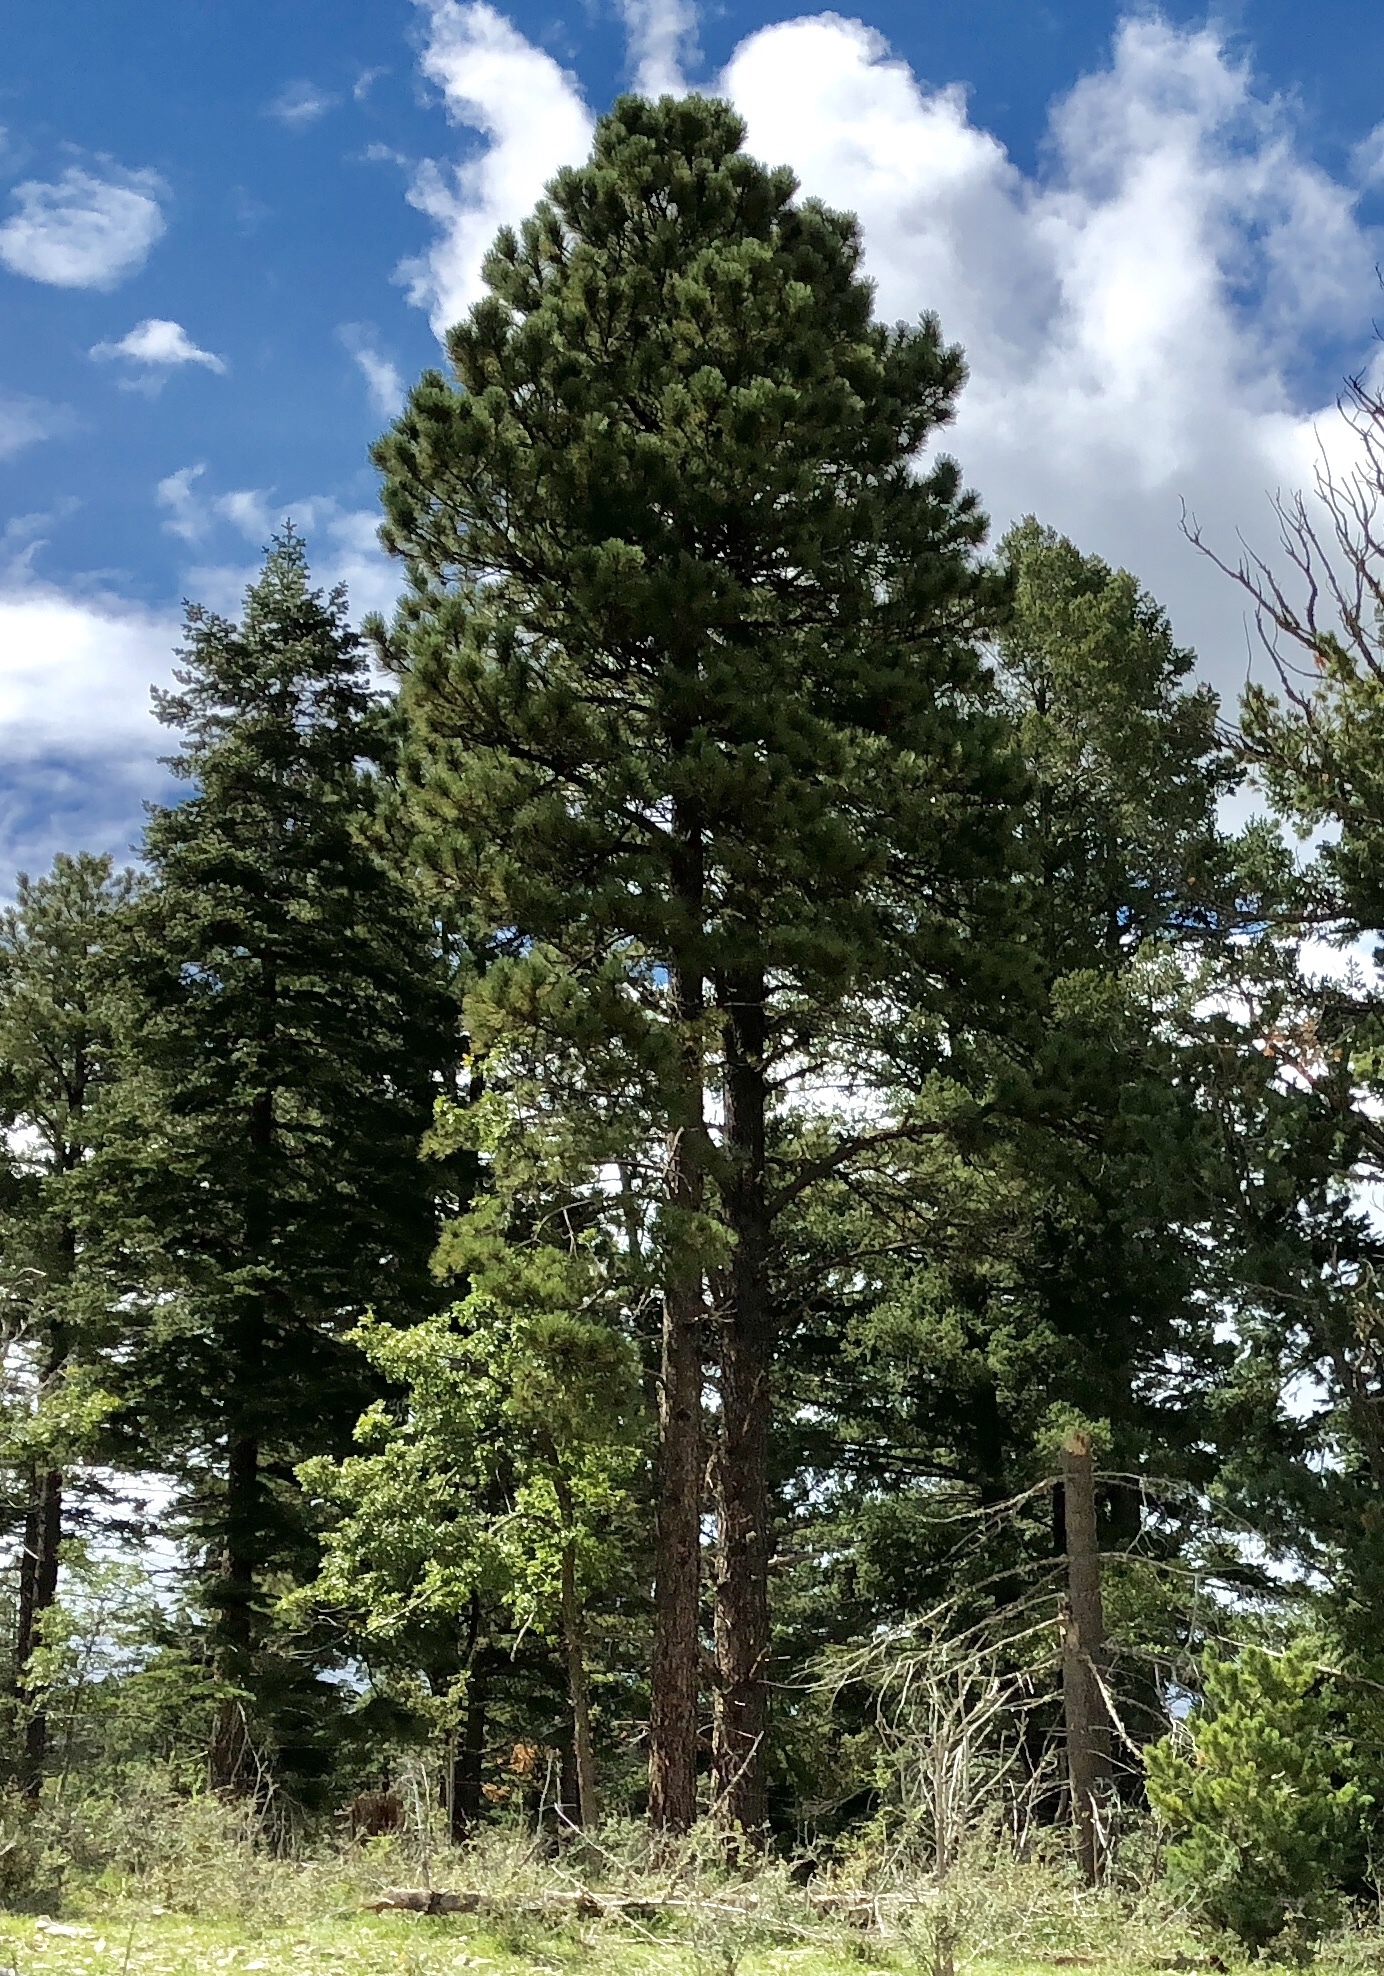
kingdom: Plantae
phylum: Tracheophyta
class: Pinopsida
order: Pinales
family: Pinaceae
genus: Pinus
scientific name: Pinus ponderosa
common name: Western yellow-pine
